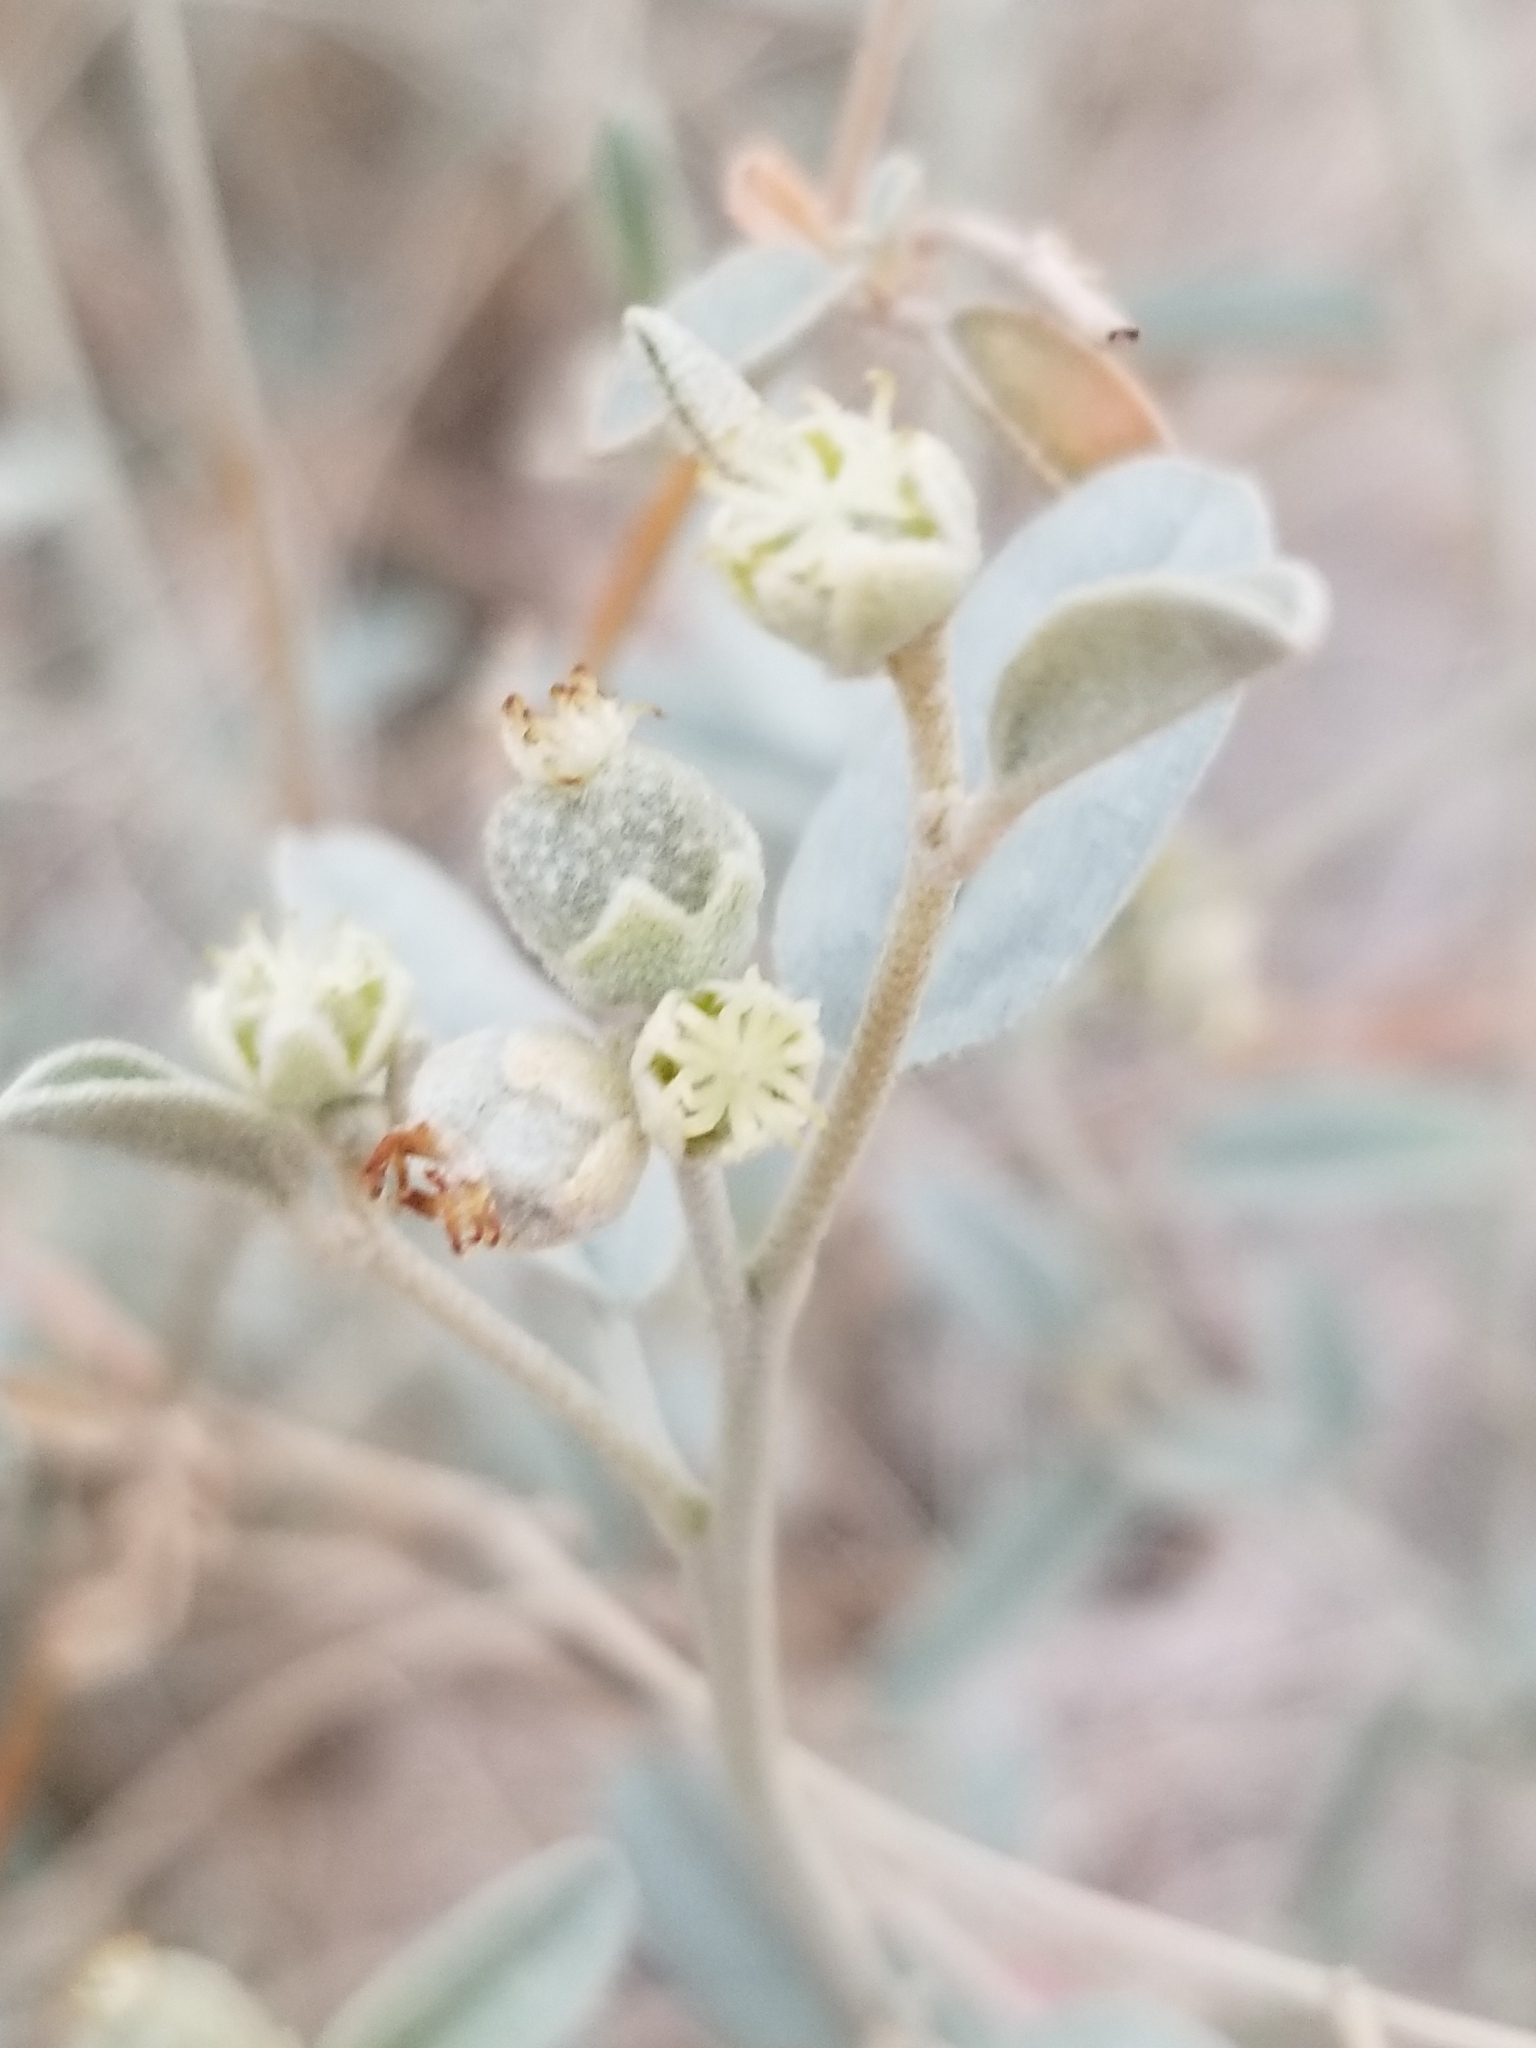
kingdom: Plantae
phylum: Tracheophyta
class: Magnoliopsida
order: Malpighiales
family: Euphorbiaceae
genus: Croton
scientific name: Croton californicus
